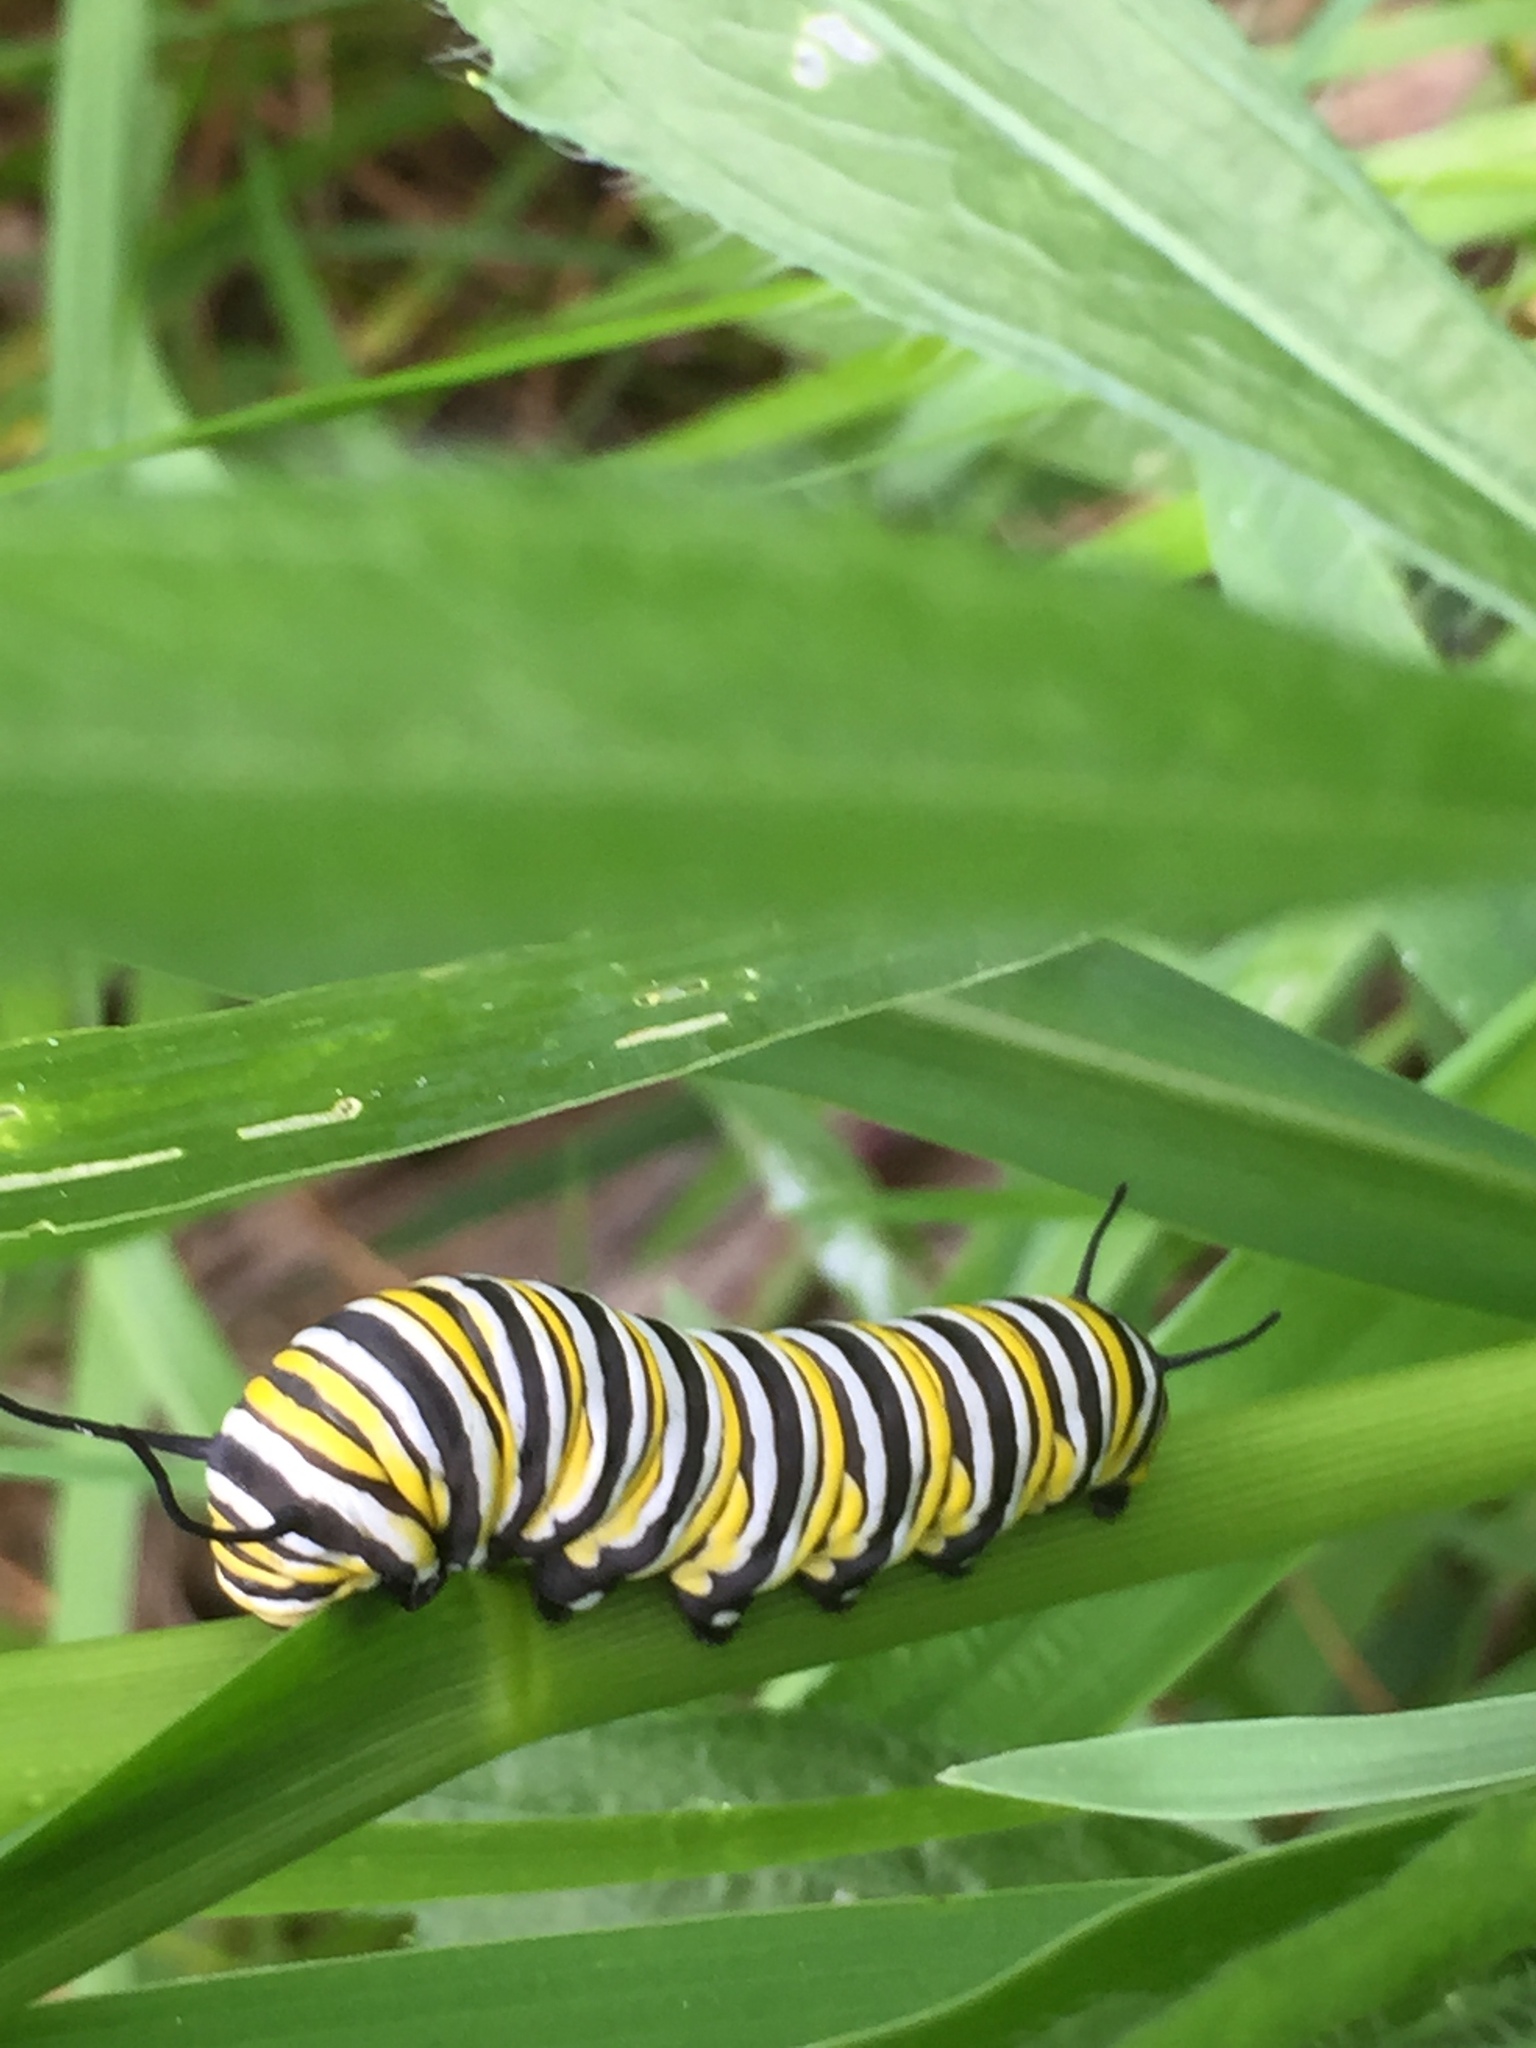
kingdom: Animalia
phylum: Arthropoda
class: Insecta
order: Lepidoptera
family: Nymphalidae
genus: Danaus
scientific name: Danaus plexippus
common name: Monarch
